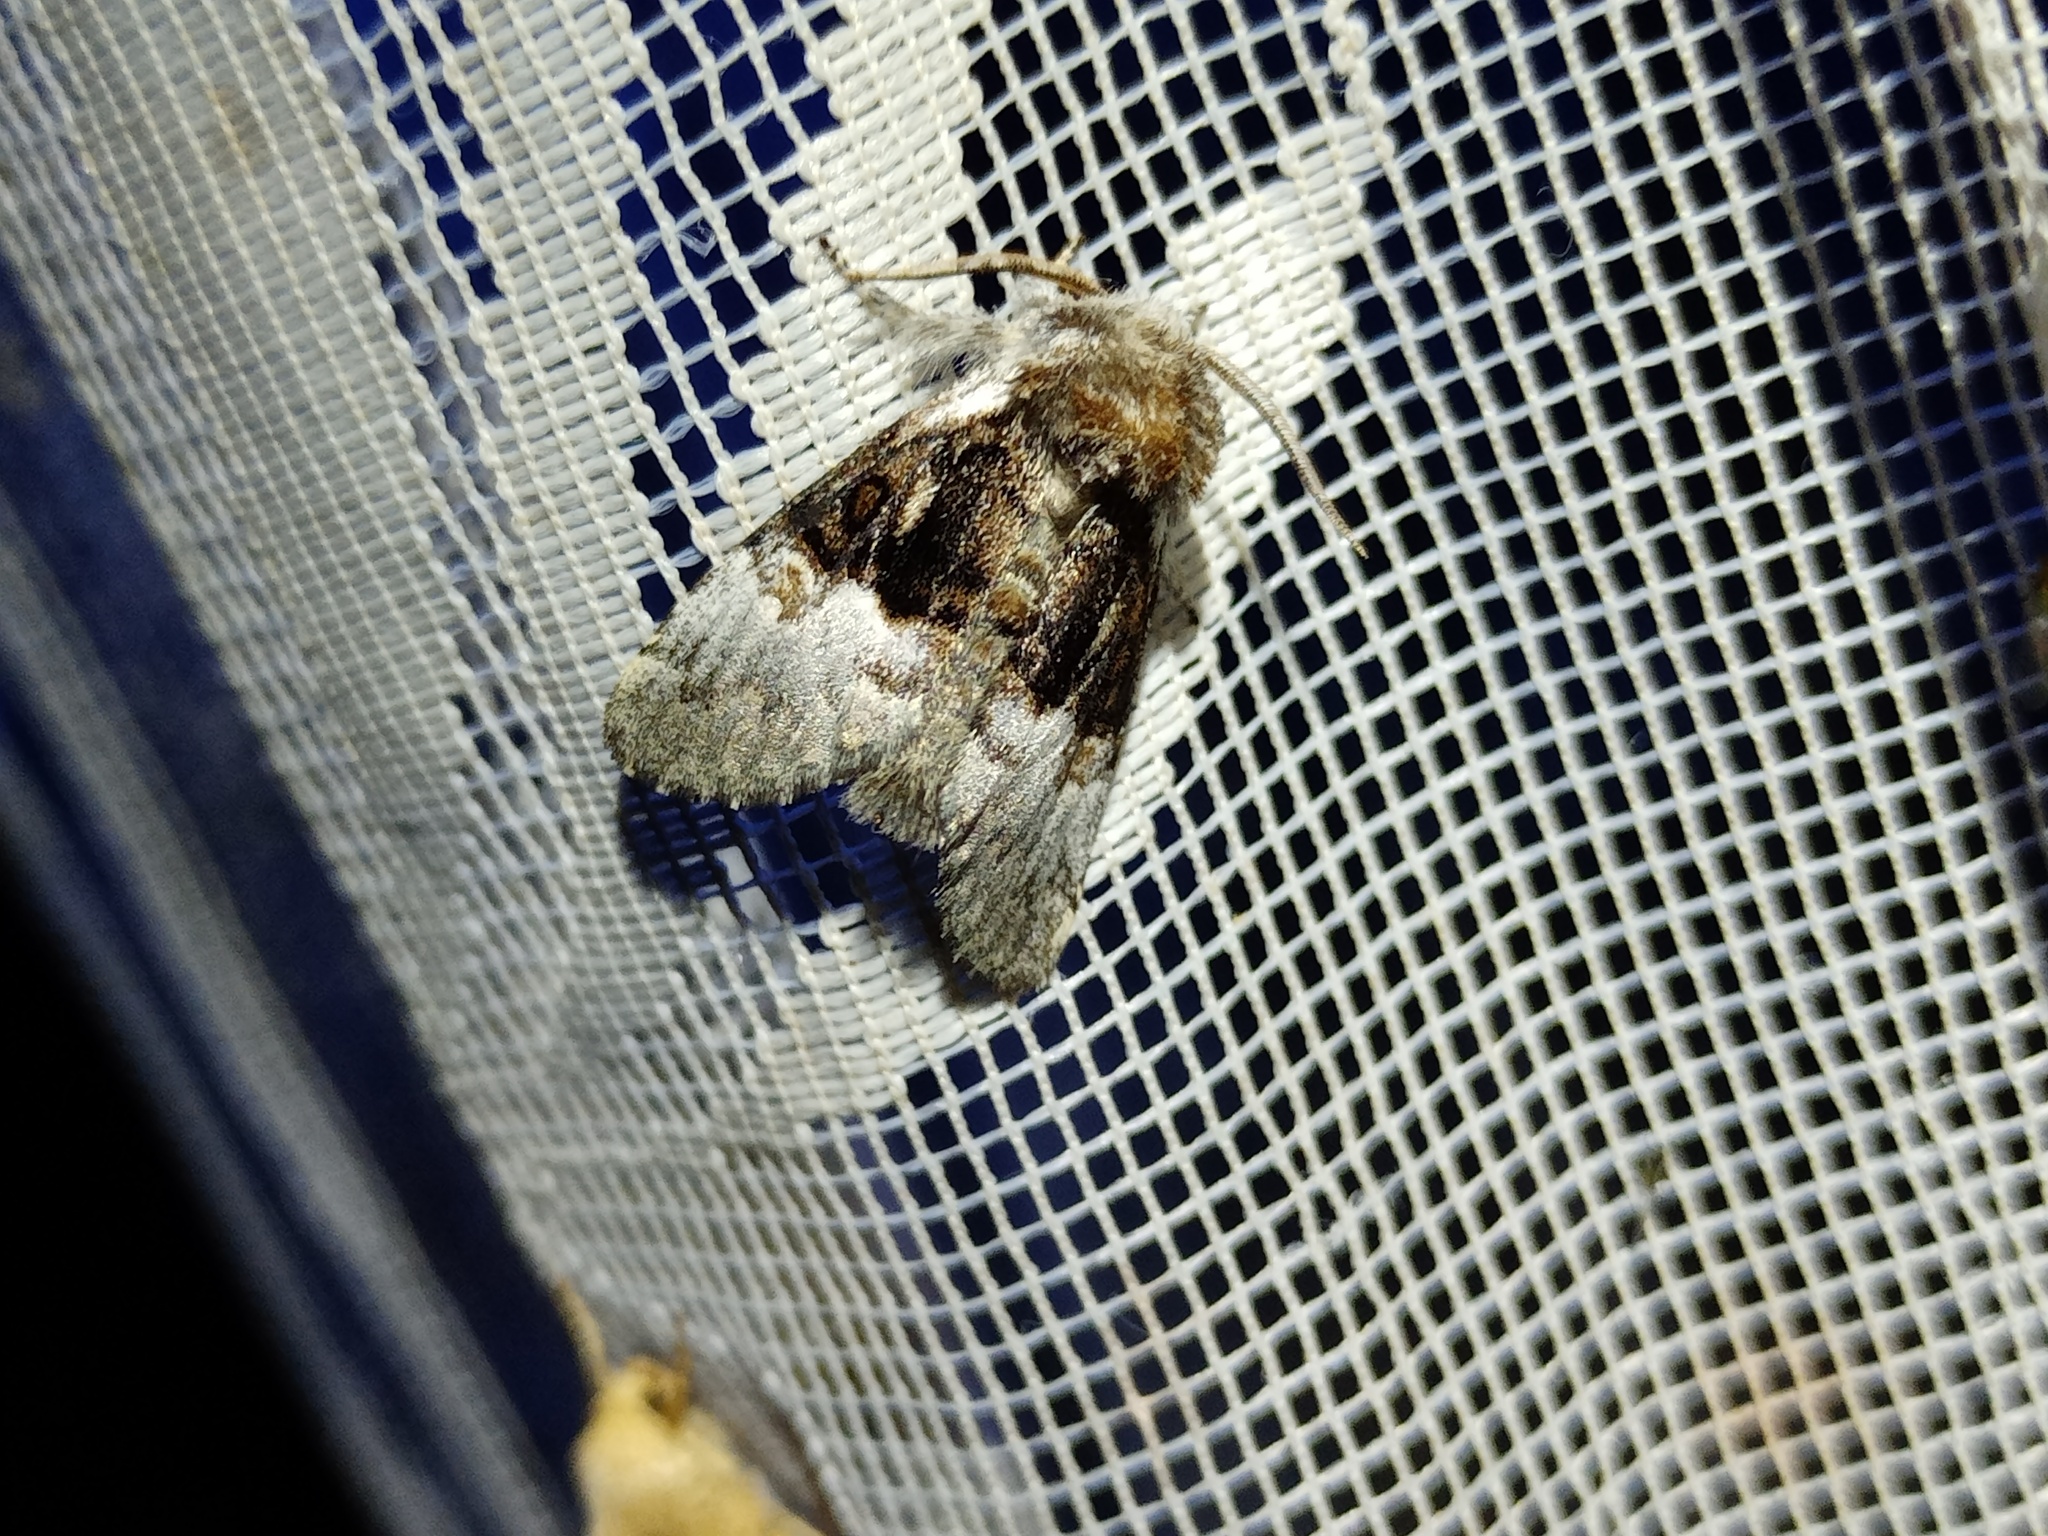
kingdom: Animalia
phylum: Arthropoda
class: Insecta
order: Lepidoptera
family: Noctuidae
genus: Colocasia
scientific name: Colocasia coryli
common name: Nut-tree tussock
